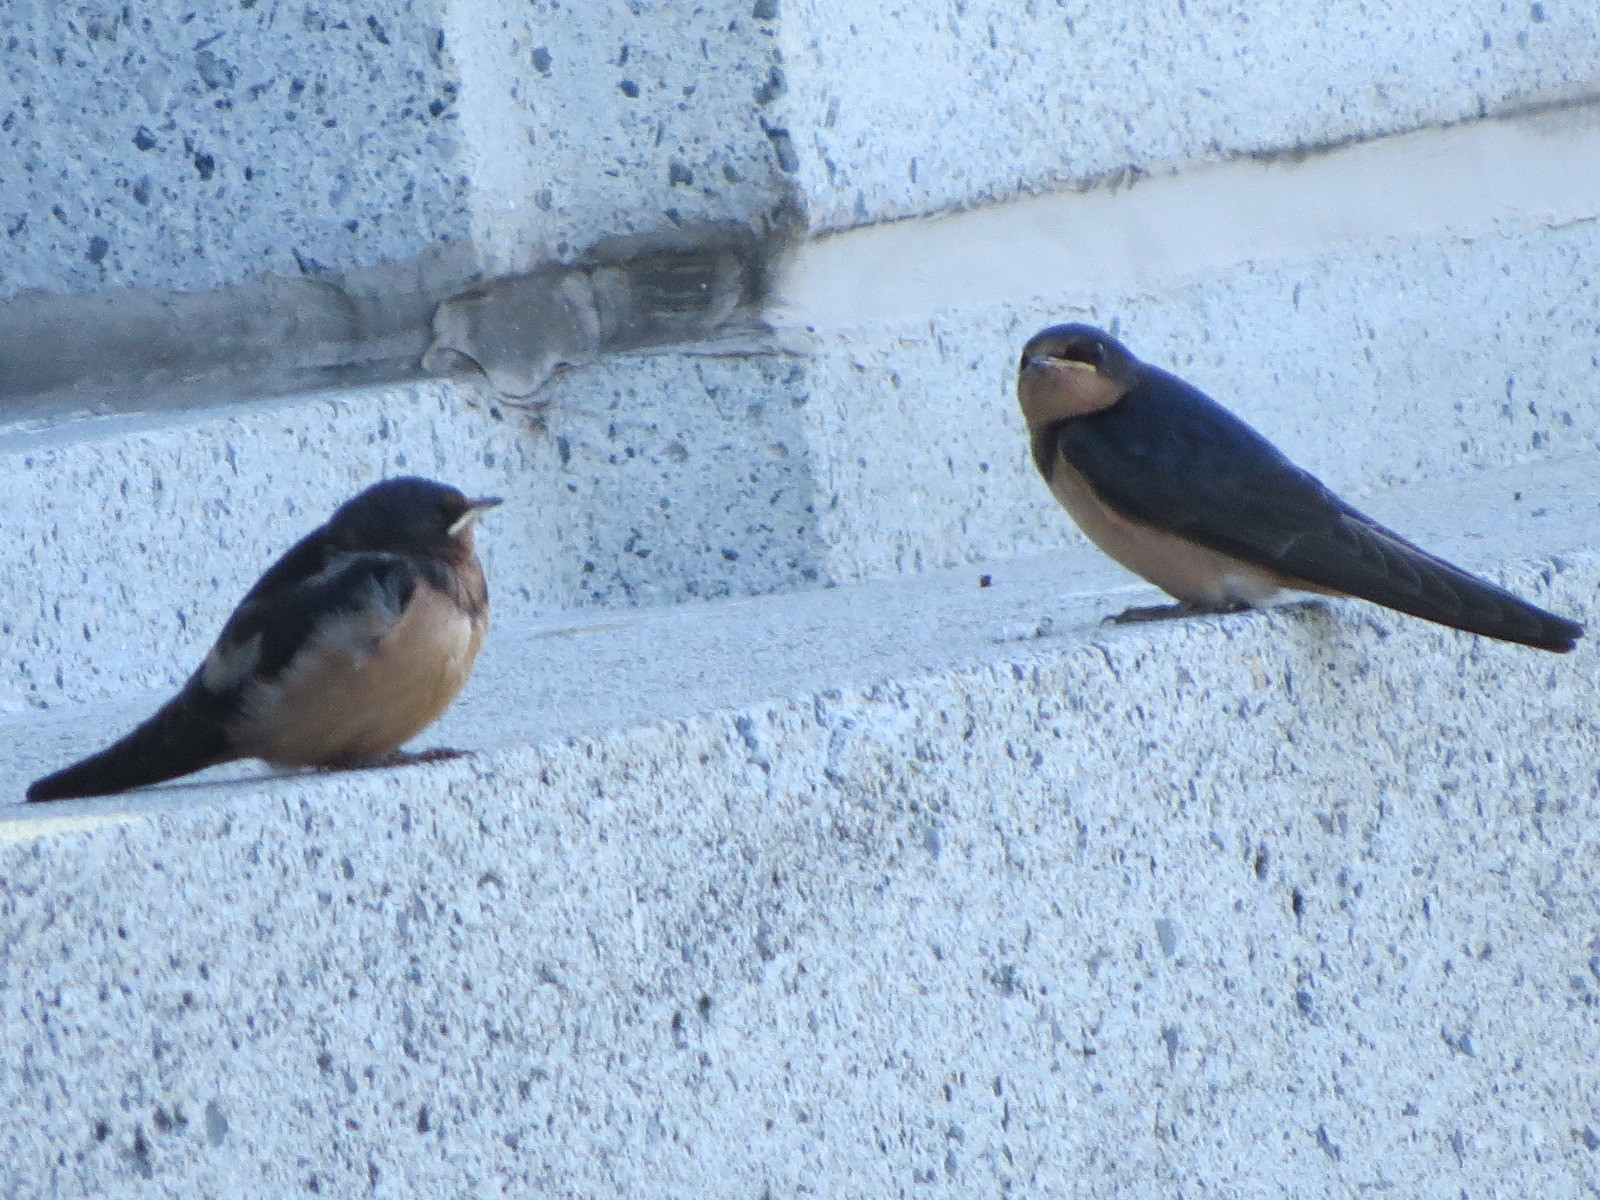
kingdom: Animalia
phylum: Chordata
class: Aves
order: Passeriformes
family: Hirundinidae
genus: Hirundo
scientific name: Hirundo rustica
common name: Barn swallow
